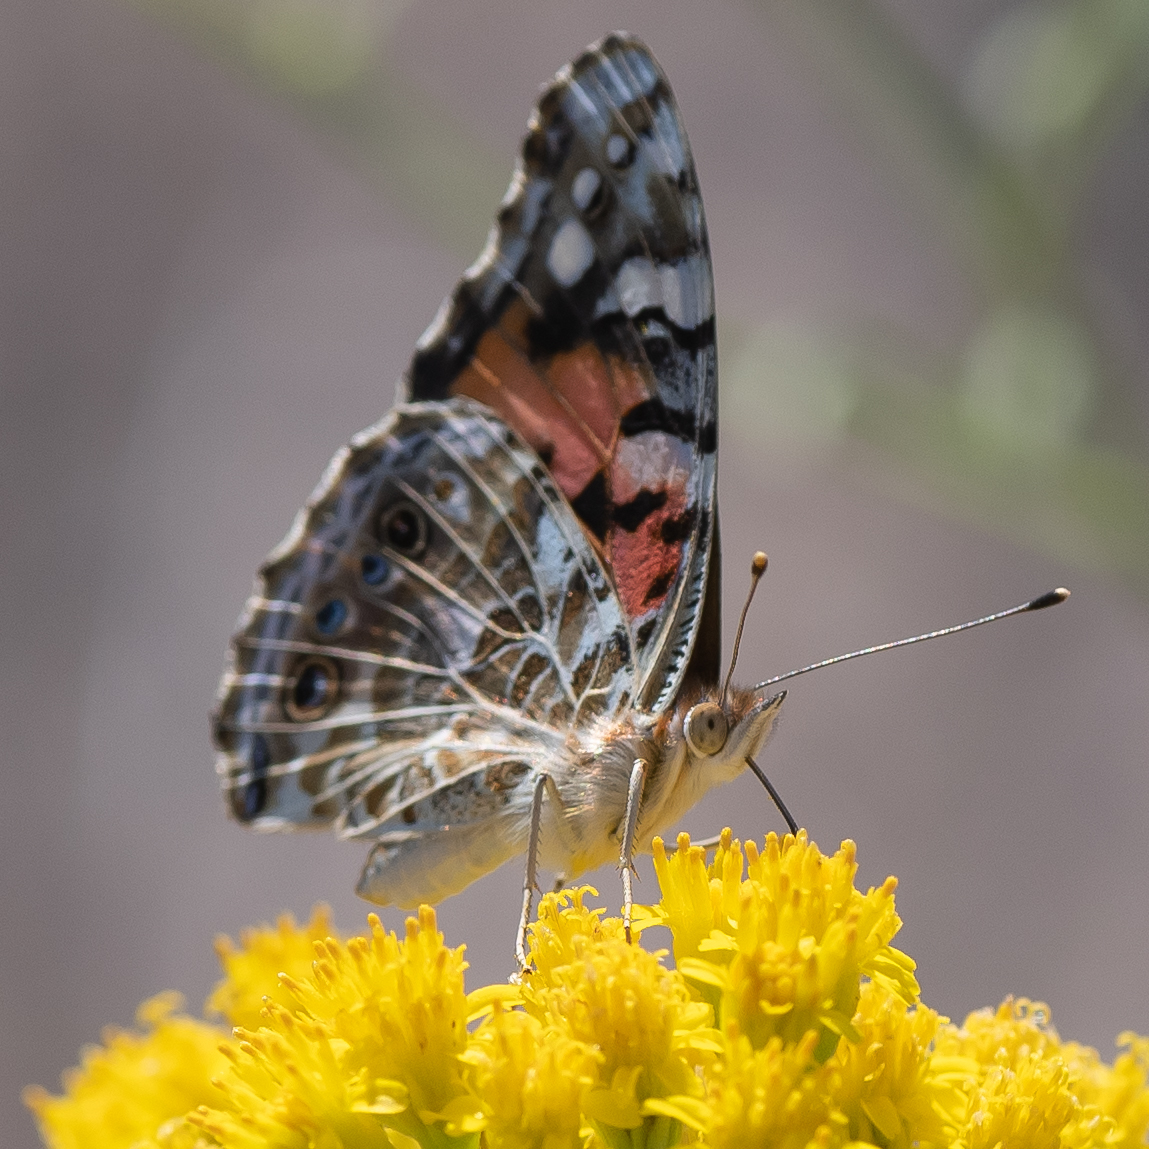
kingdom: Animalia
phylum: Arthropoda
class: Insecta
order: Lepidoptera
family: Nymphalidae
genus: Vanessa
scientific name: Vanessa cardui
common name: Painted lady
